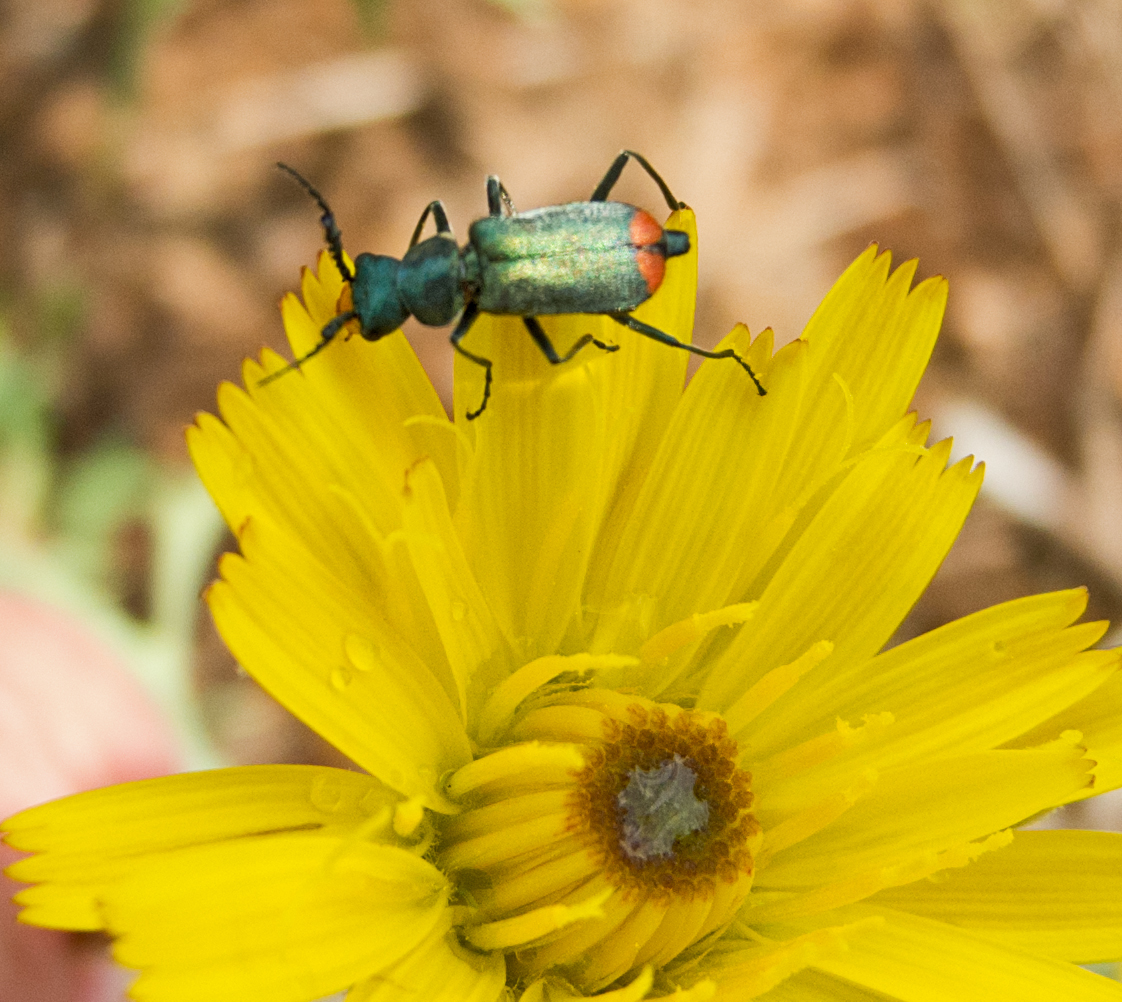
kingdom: Animalia
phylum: Arthropoda
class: Insecta
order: Coleoptera
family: Malachiidae
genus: Ceratistes
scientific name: Ceratistes dilaticornis
